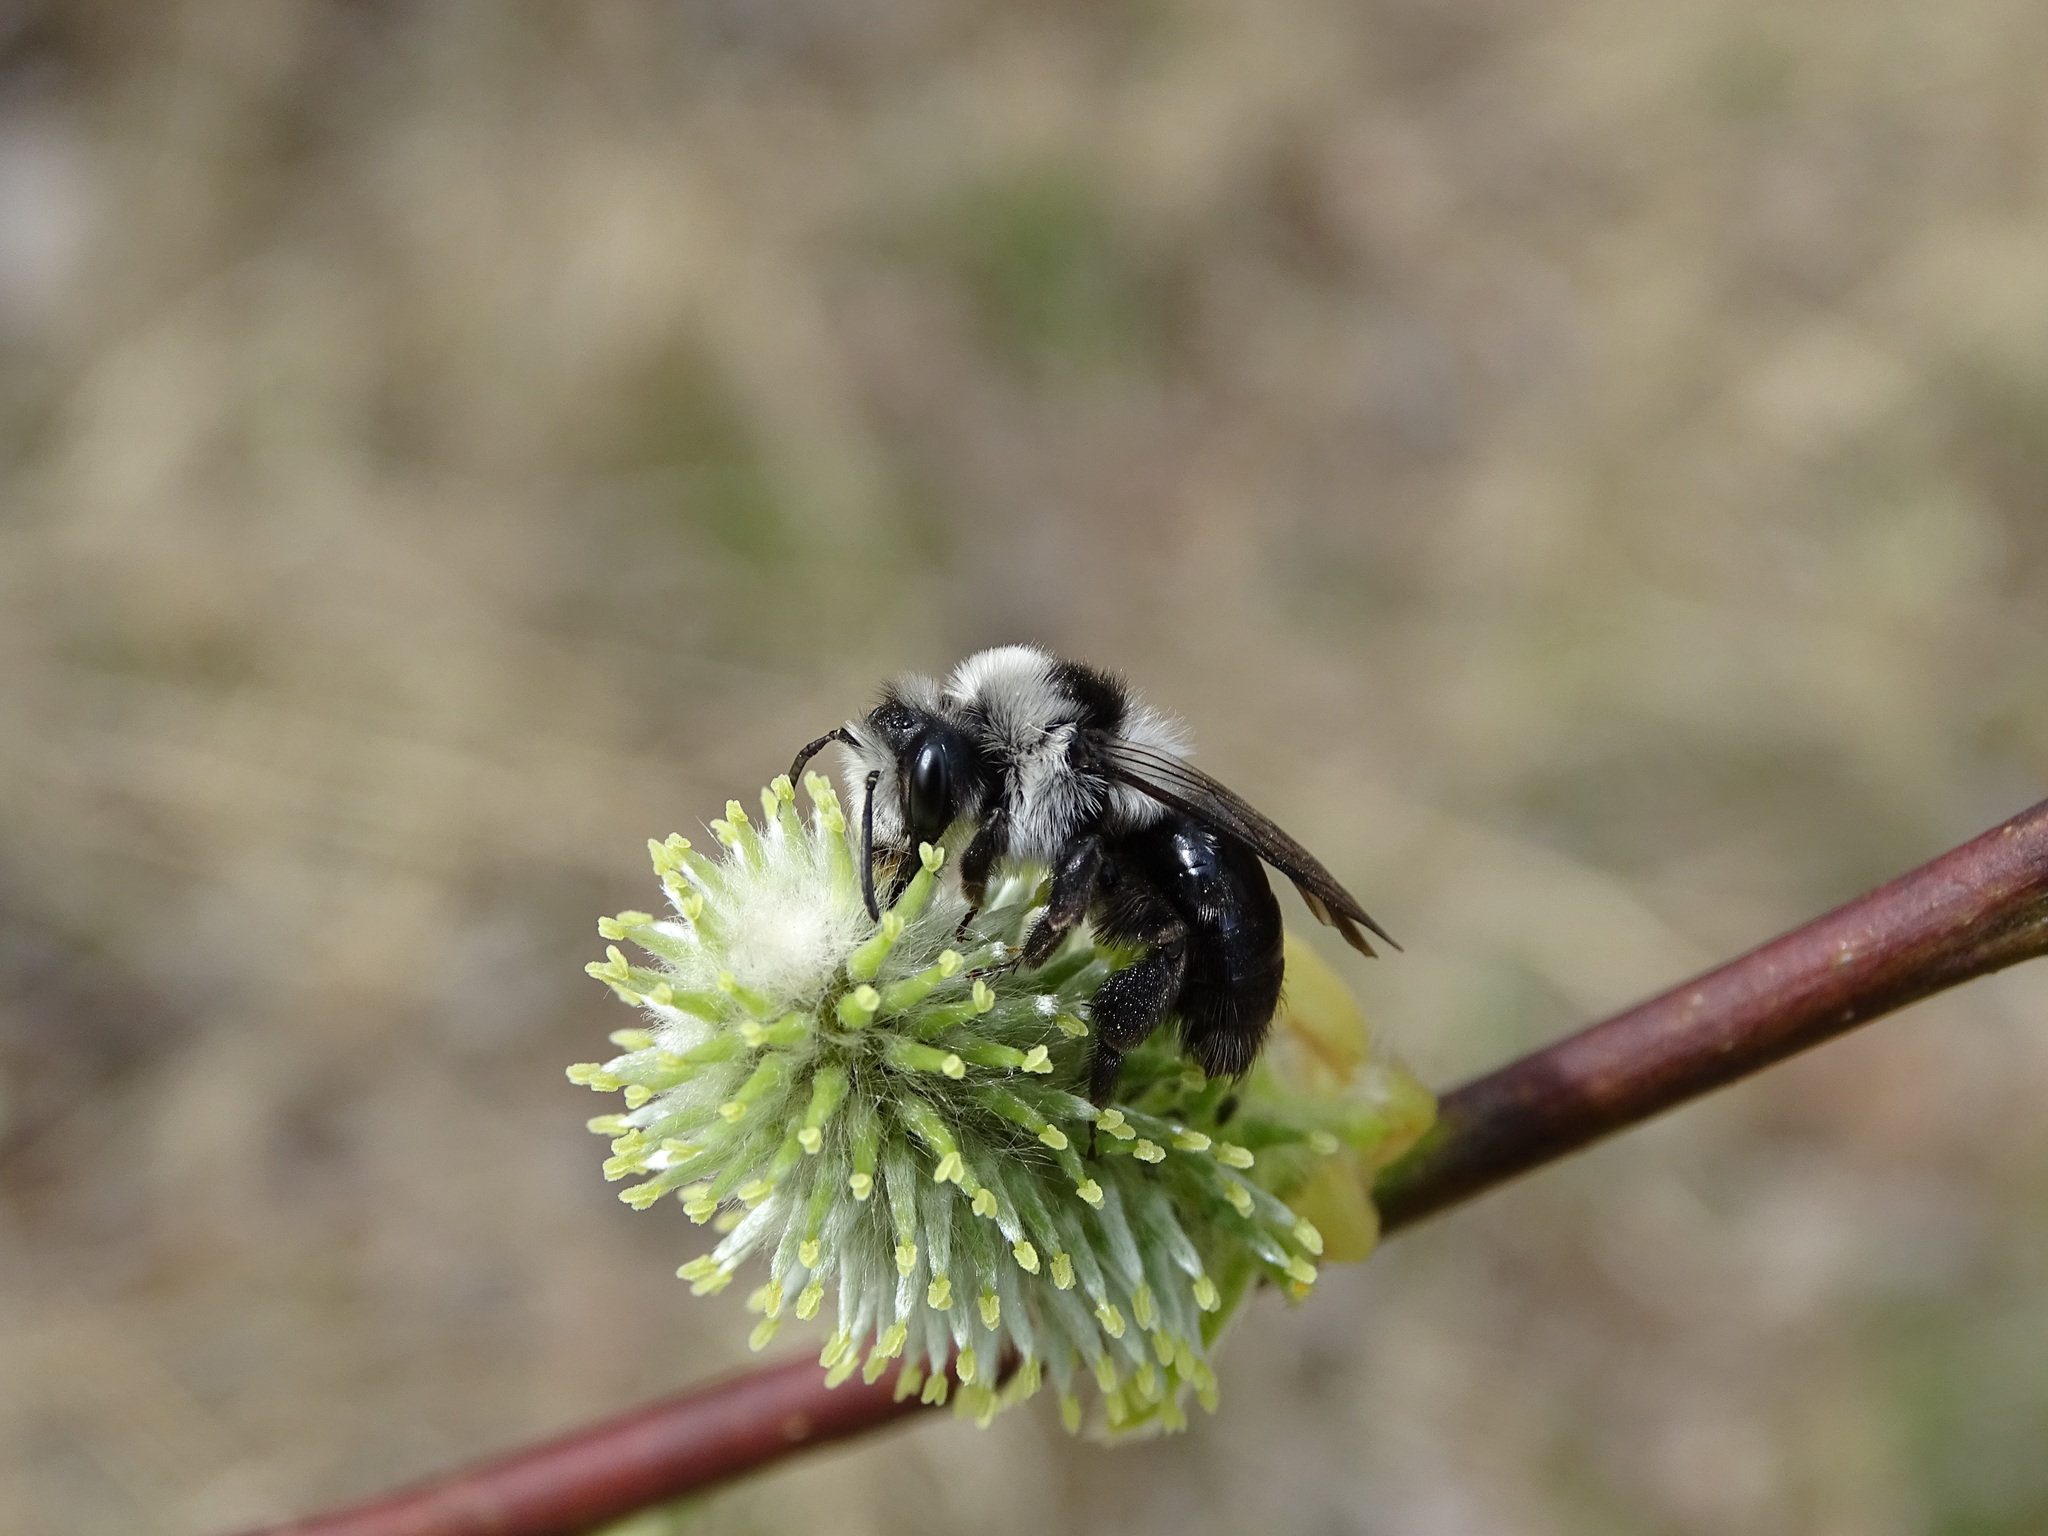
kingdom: Animalia
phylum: Arthropoda
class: Insecta
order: Hymenoptera
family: Andrenidae
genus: Andrena
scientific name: Andrena cineraria
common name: Ashy mining bee
